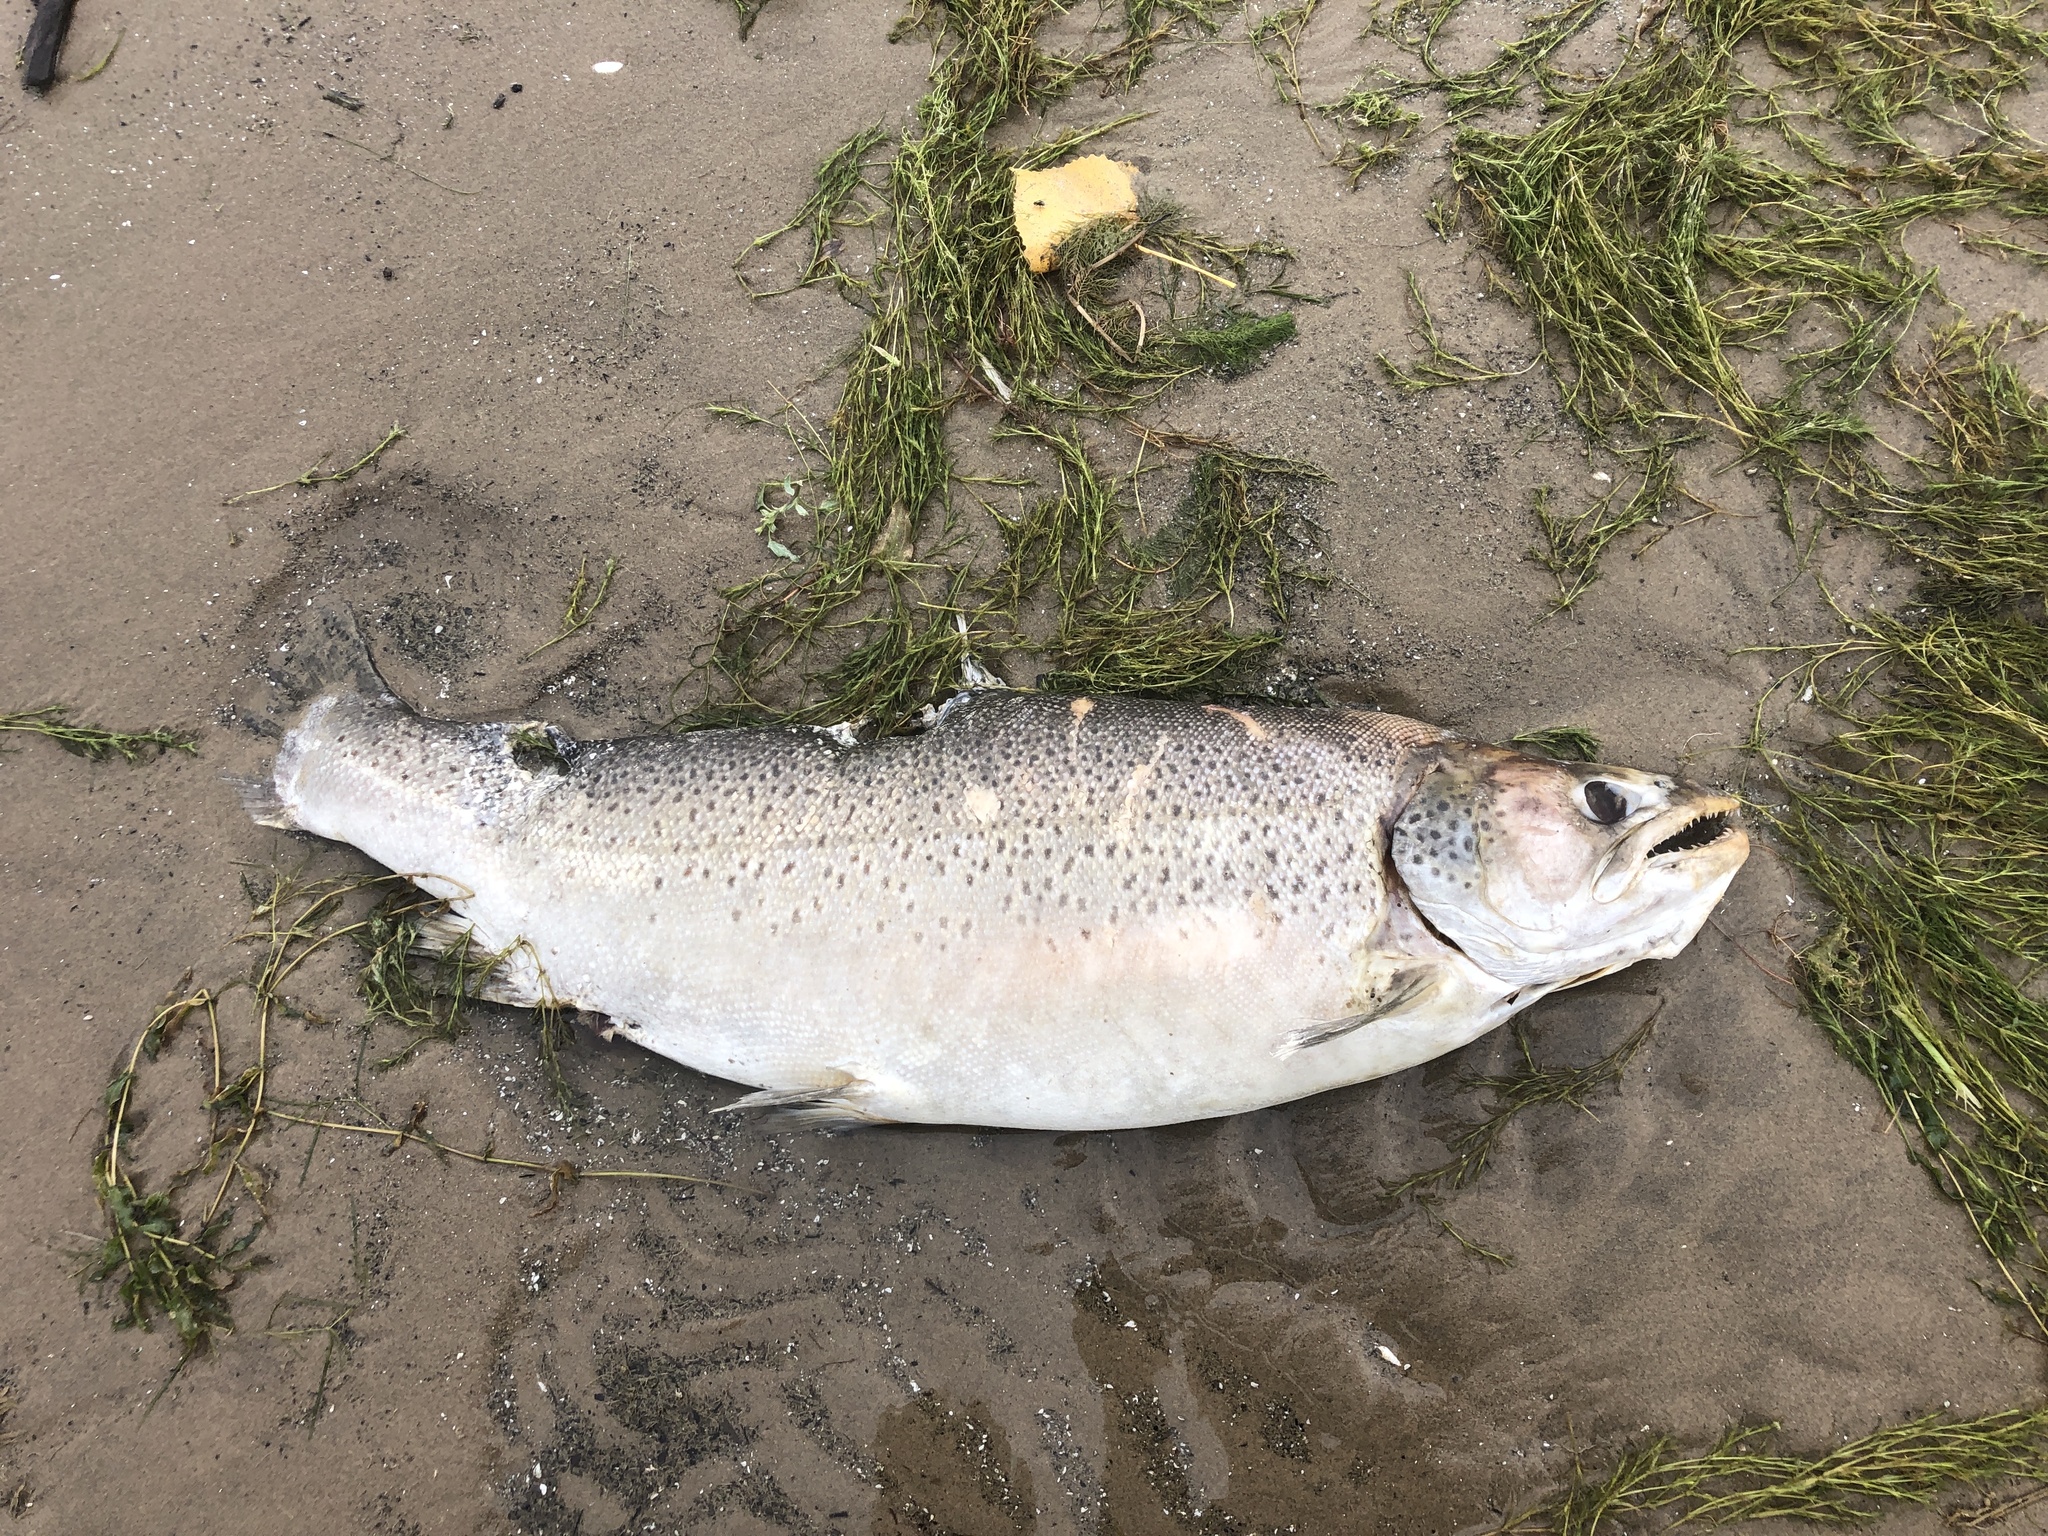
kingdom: Animalia
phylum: Chordata
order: Salmoniformes
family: Salmonidae
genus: Salmo
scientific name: Salmo trutta
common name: Brown trout
